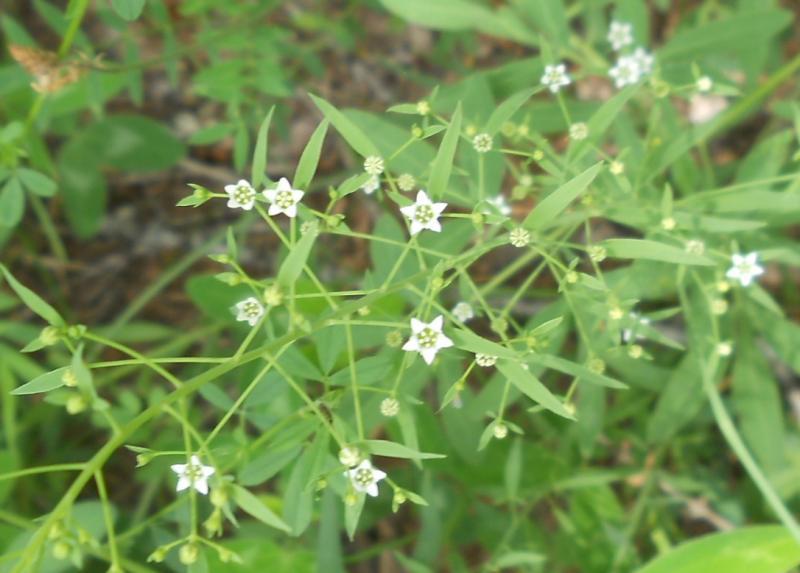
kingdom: Plantae
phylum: Tracheophyta
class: Magnoliopsida
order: Santalales
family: Thesiaceae
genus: Thesium
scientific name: Thesium bavarum
